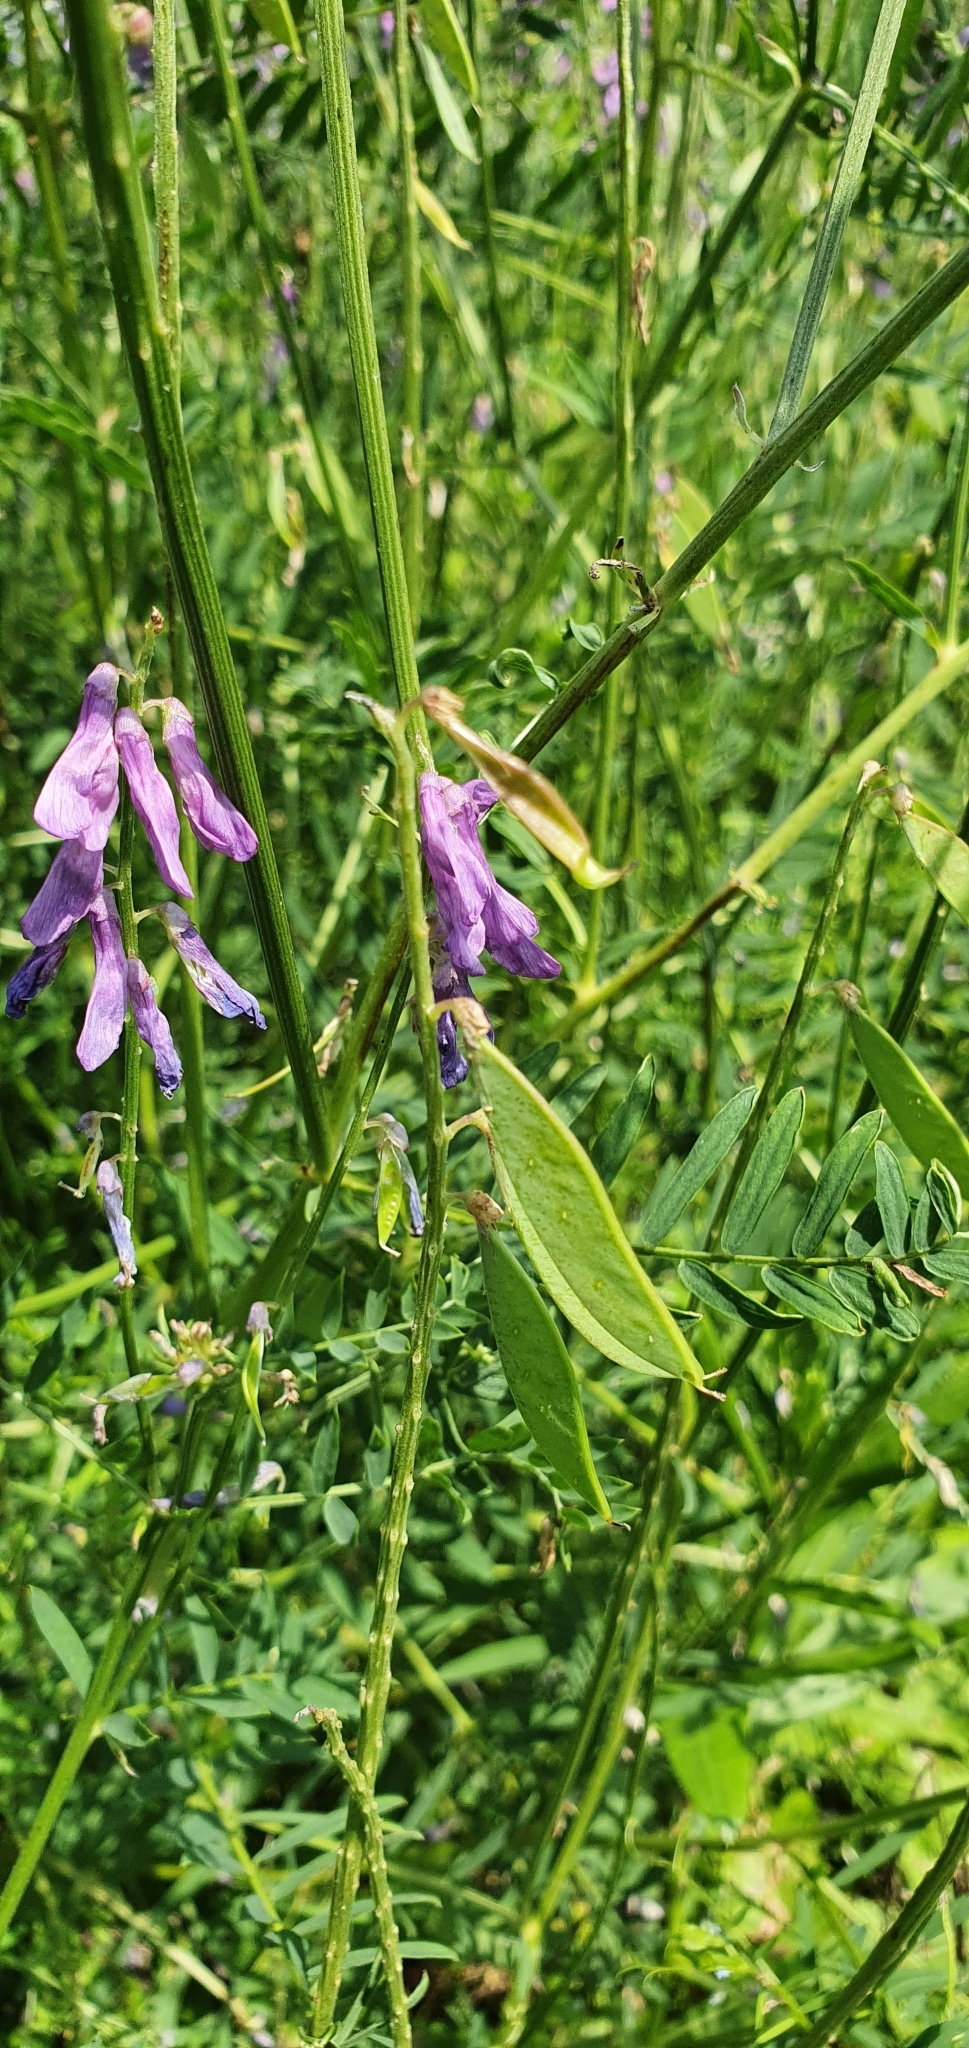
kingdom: Plantae
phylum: Tracheophyta
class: Magnoliopsida
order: Fabales
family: Fabaceae
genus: Vicia
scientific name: Vicia tenuifolia
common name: Fine-leaved vetch
